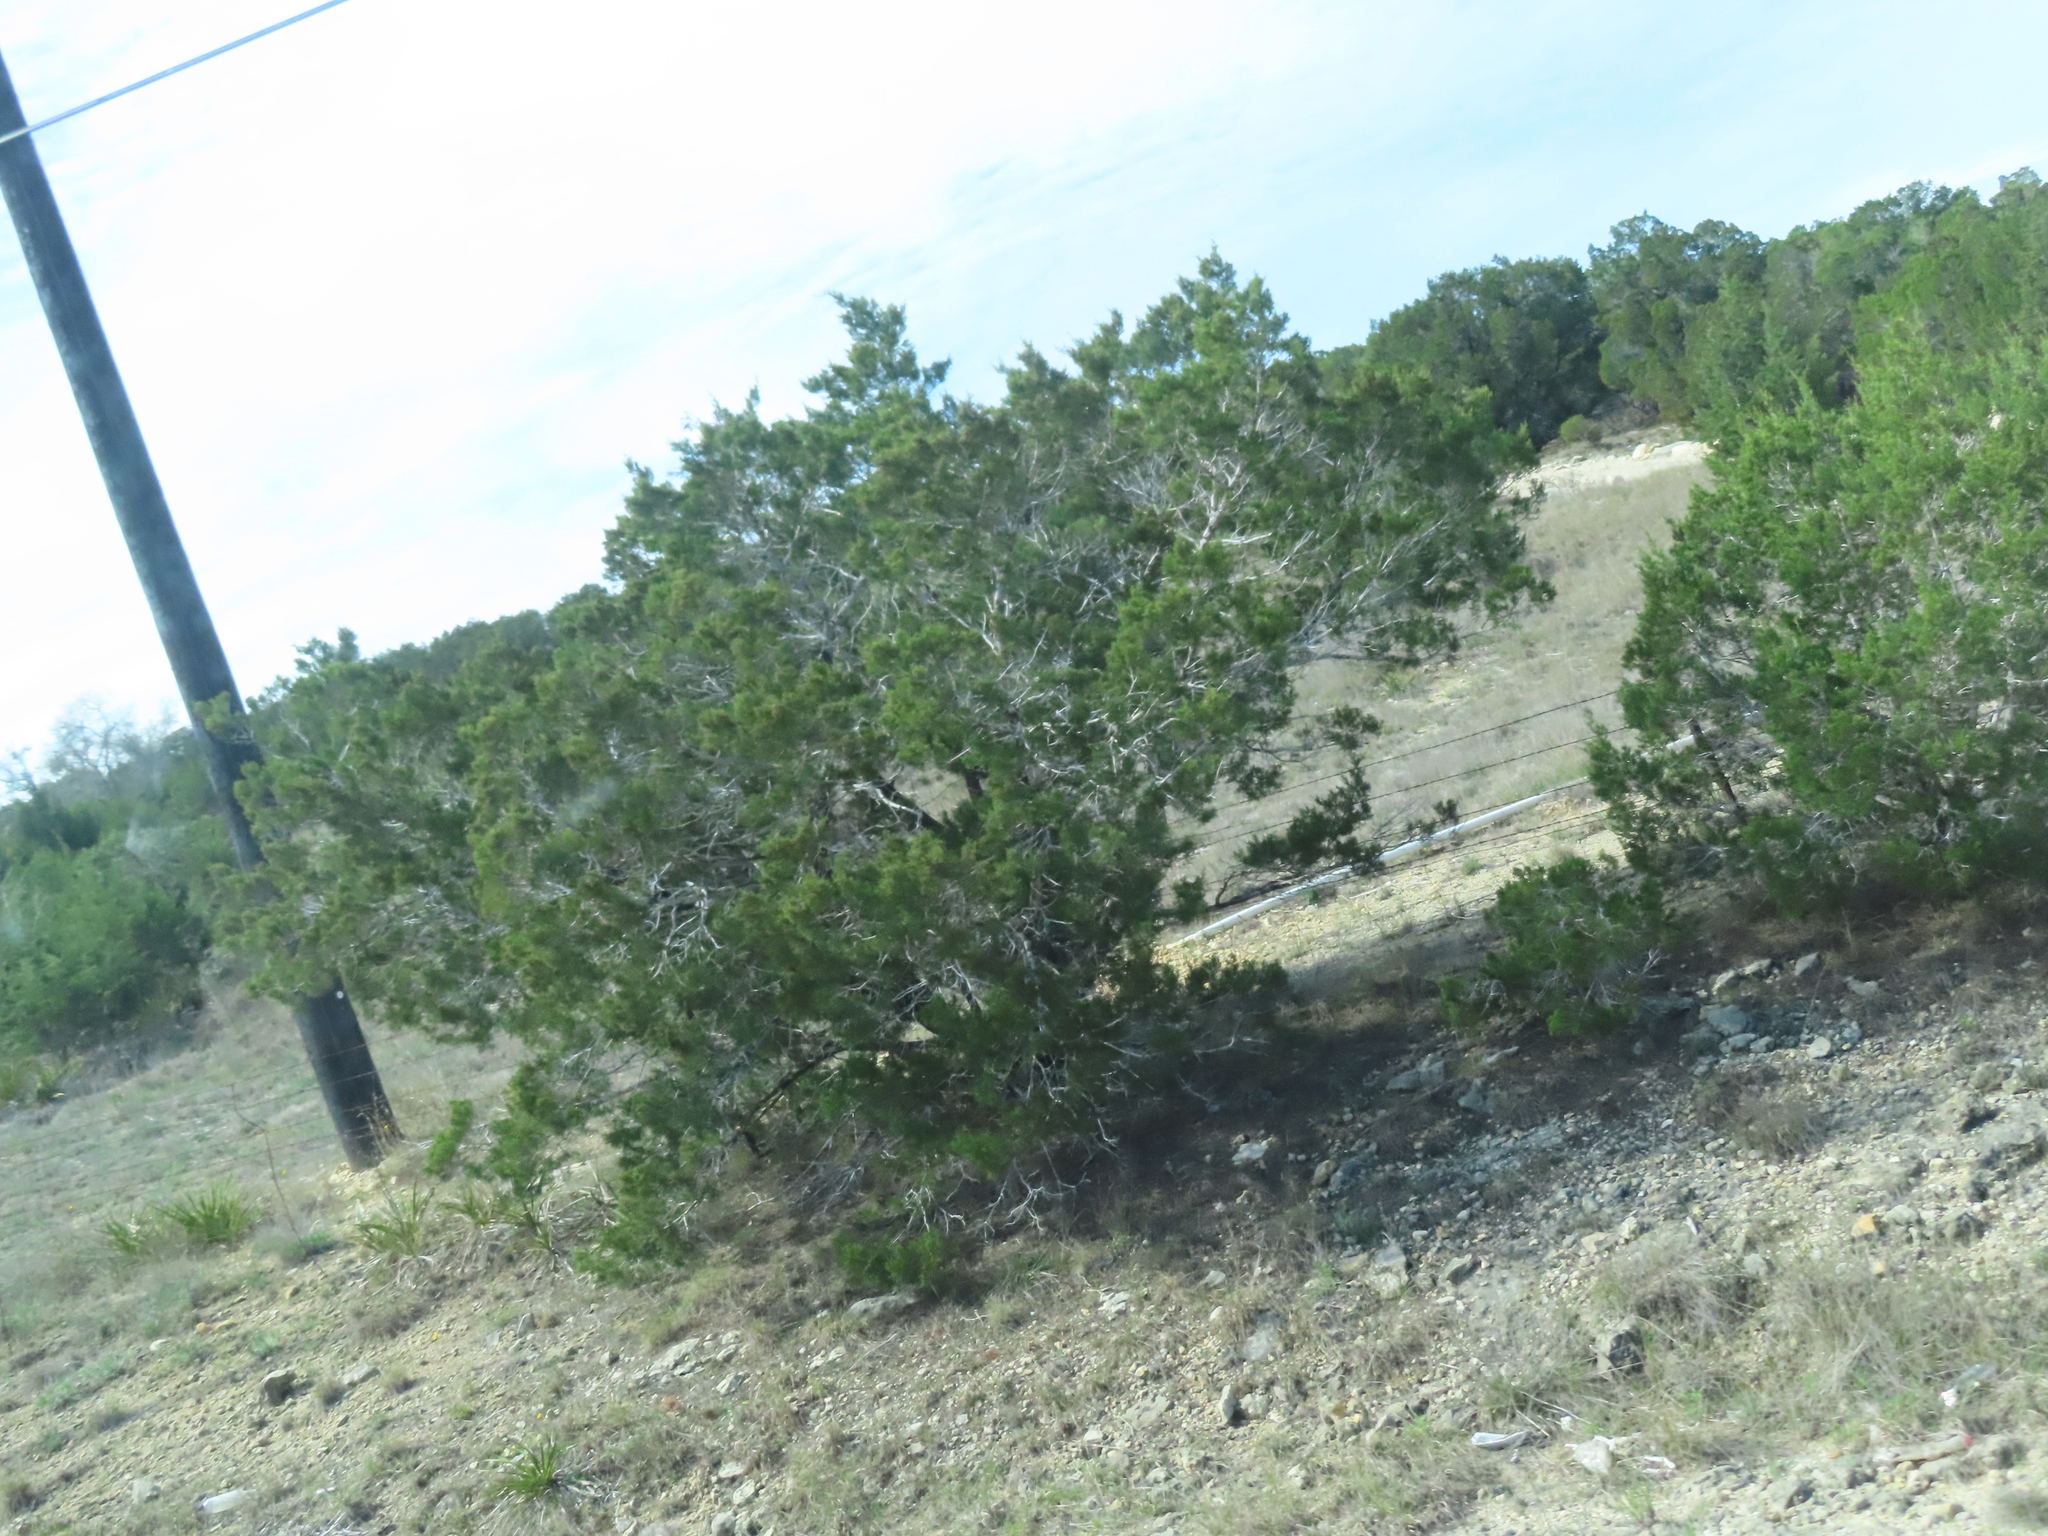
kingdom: Plantae
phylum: Tracheophyta
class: Pinopsida
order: Pinales
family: Cupressaceae
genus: Juniperus
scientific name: Juniperus ashei
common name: Mexican juniper
